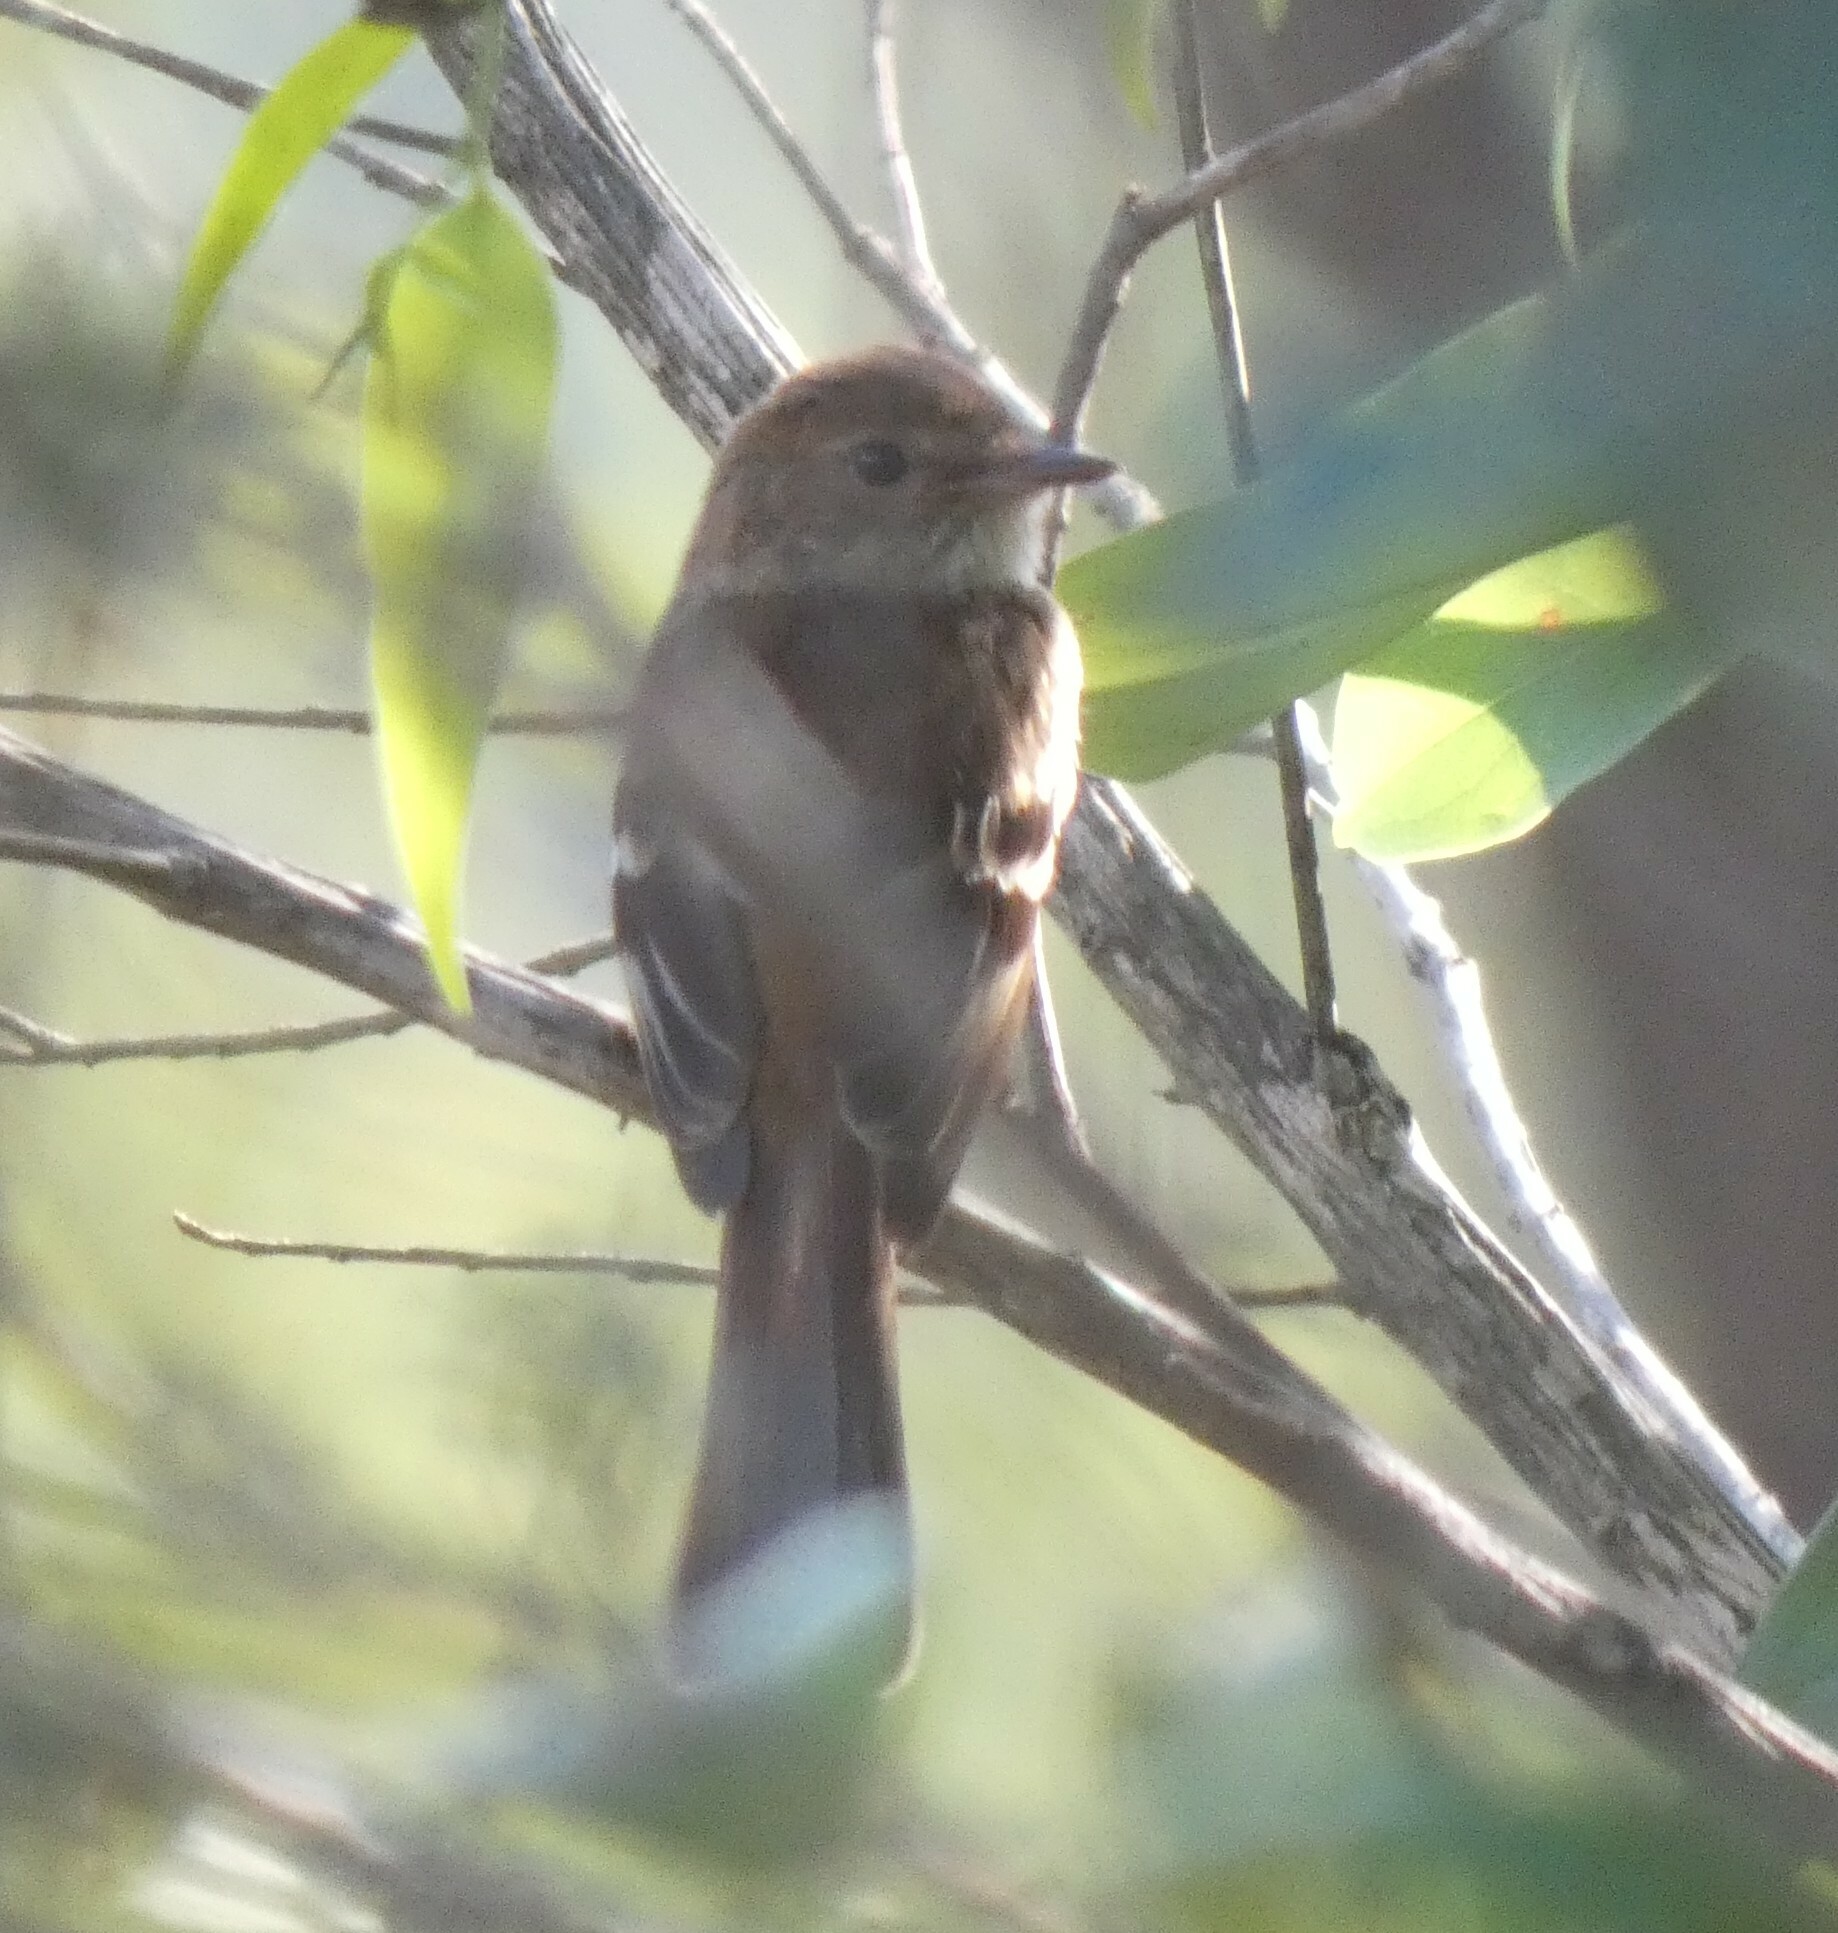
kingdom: Animalia
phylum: Chordata
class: Aves
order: Passeriformes
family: Tyrannidae
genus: Myiophobus
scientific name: Myiophobus fasciatus
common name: Bran-colored flycatcher
